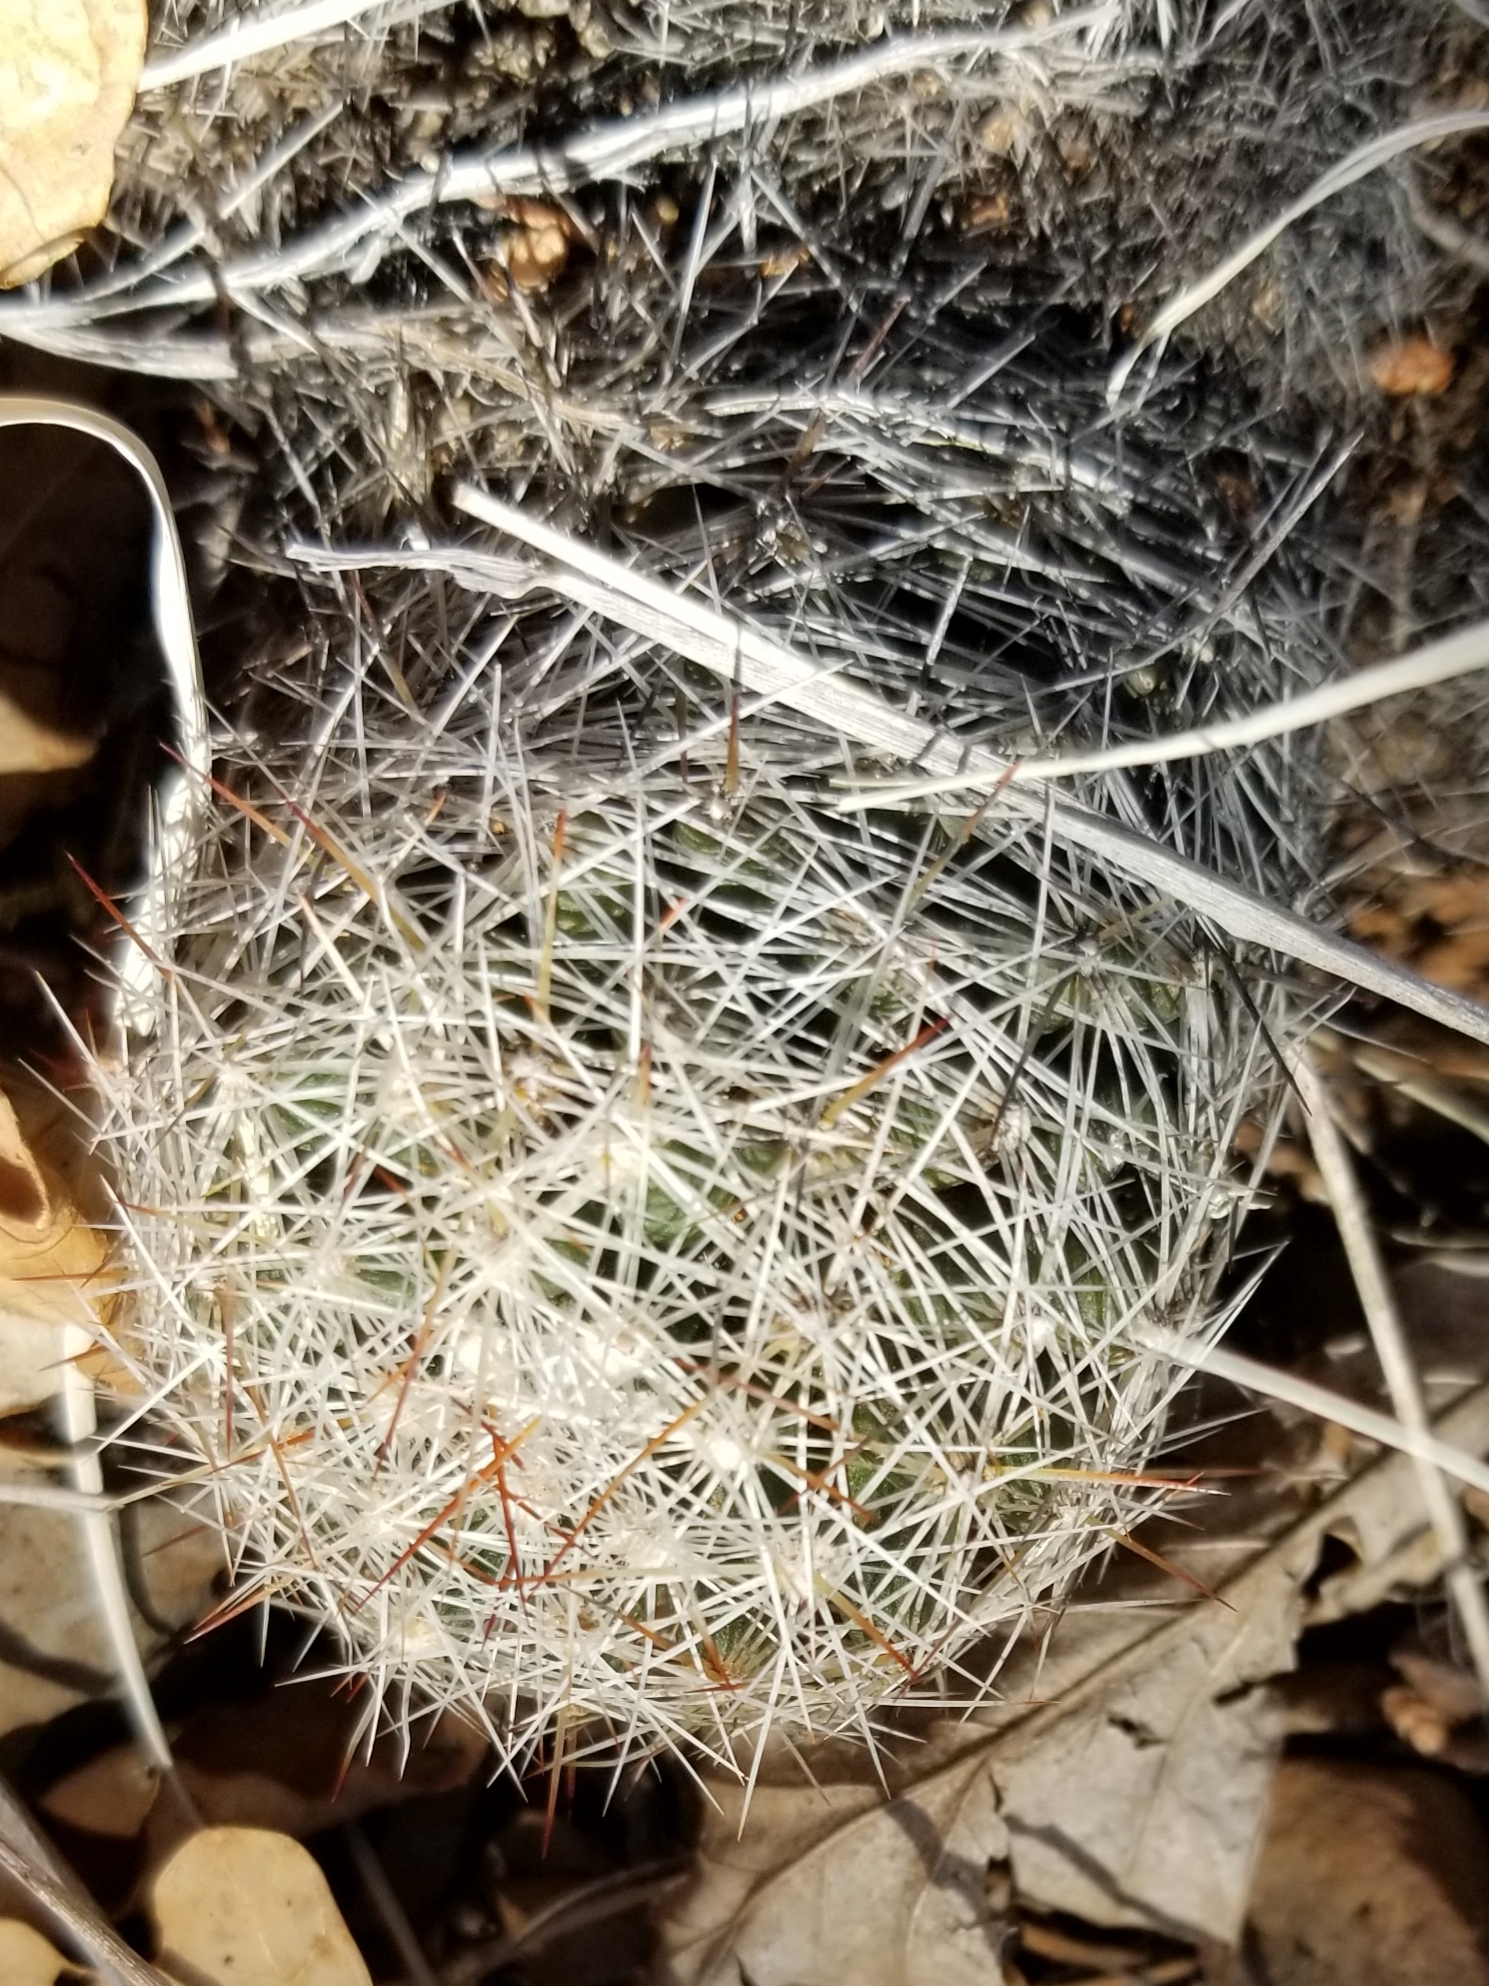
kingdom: Plantae
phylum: Tracheophyta
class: Magnoliopsida
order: Caryophyllales
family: Cactaceae
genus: Pelecyphora
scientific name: Pelecyphora vivipara
